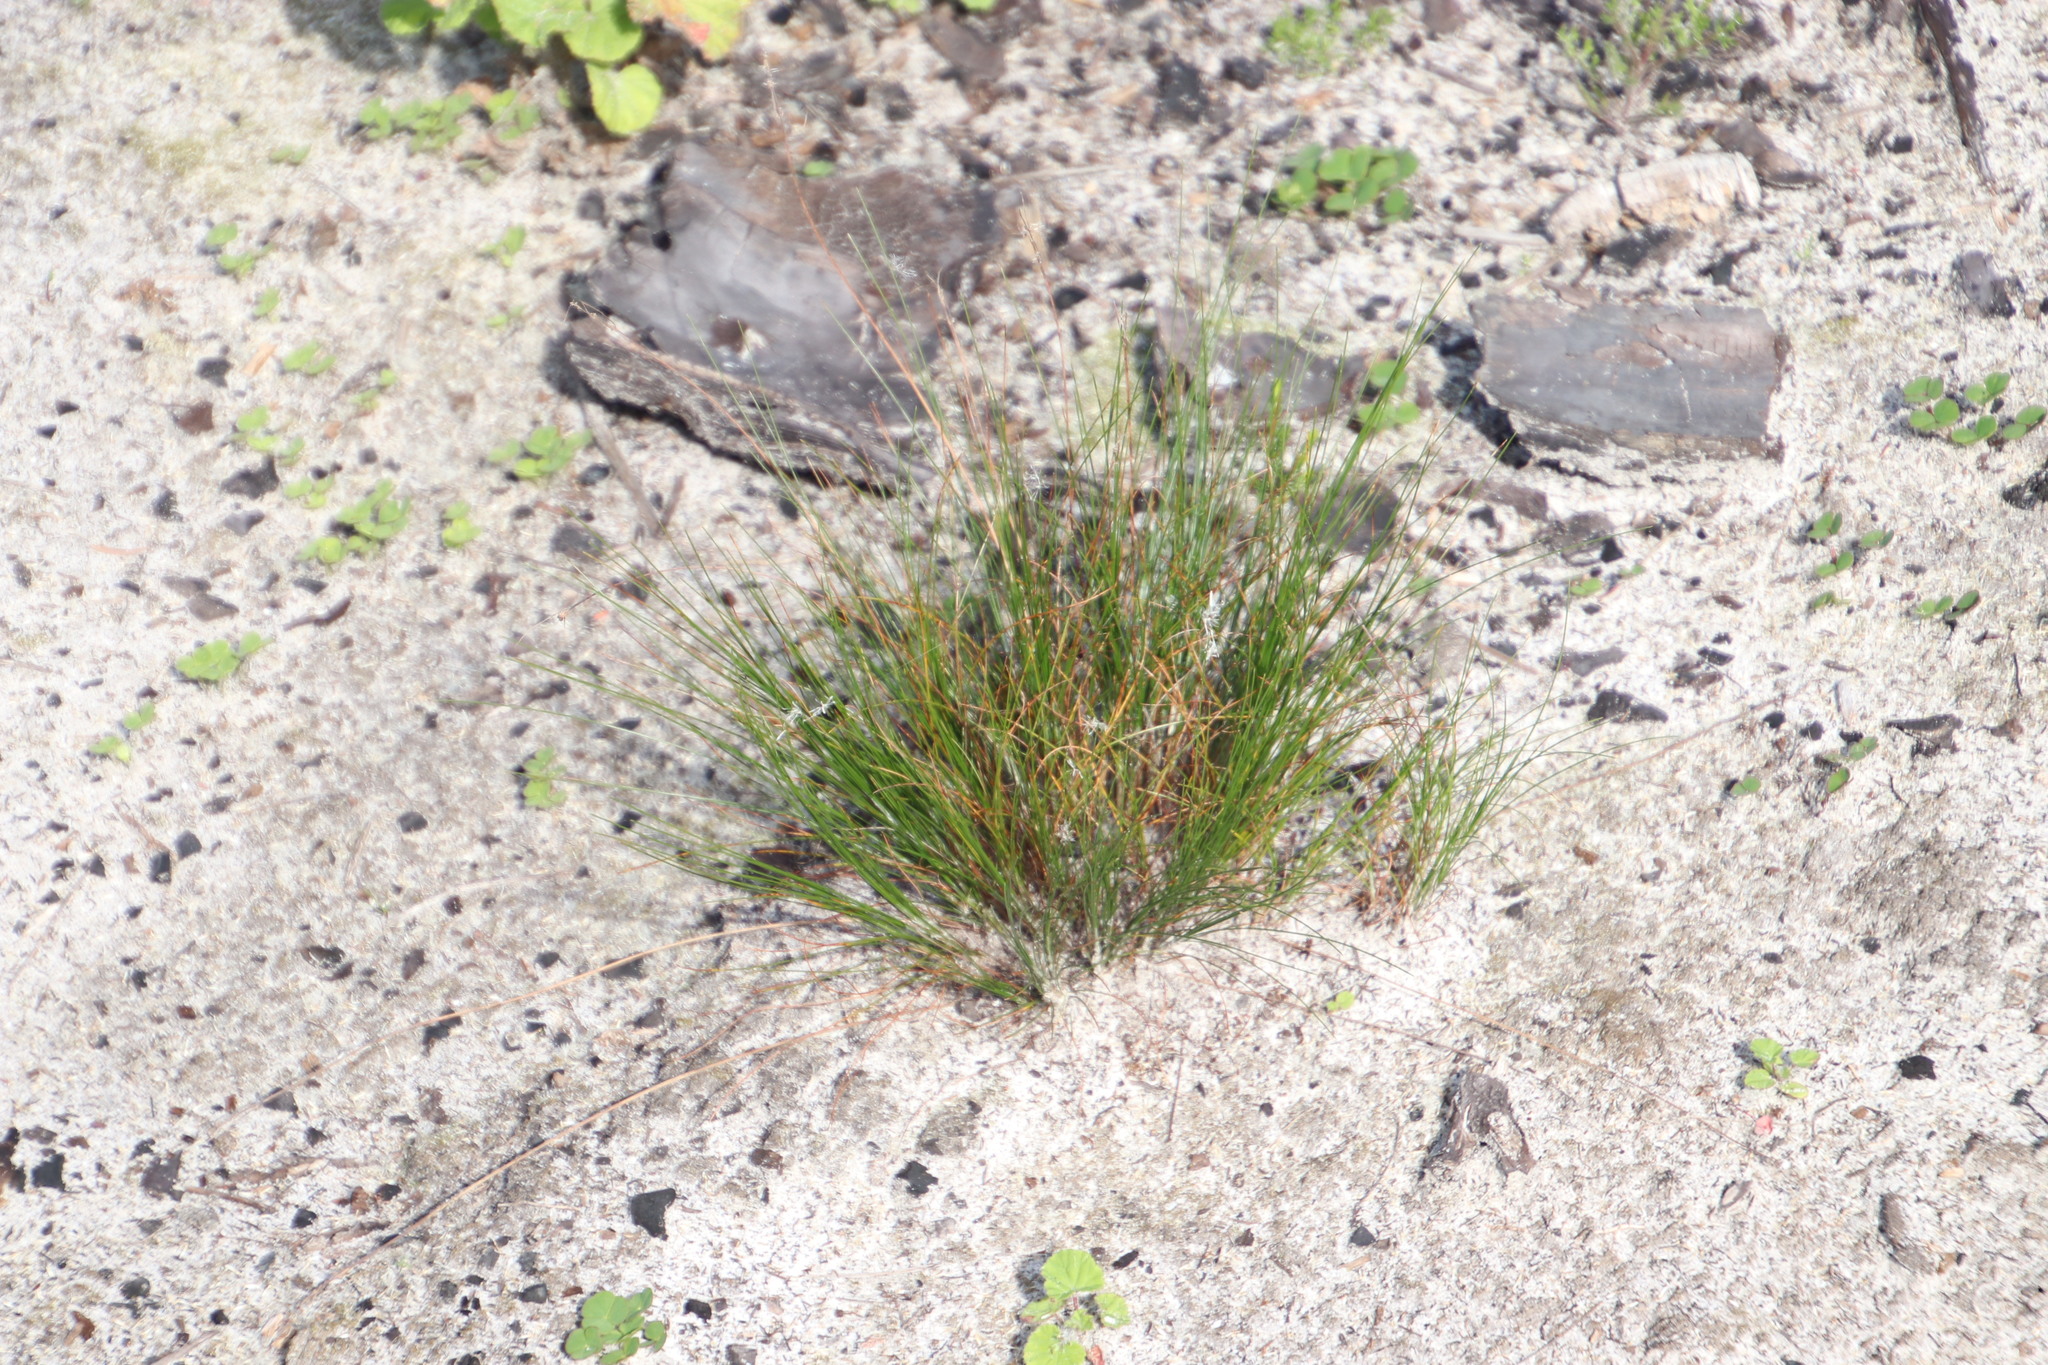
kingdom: Plantae
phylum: Tracheophyta
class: Liliopsida
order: Poales
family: Cyperaceae
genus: Ficinia
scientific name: Ficinia secunda
